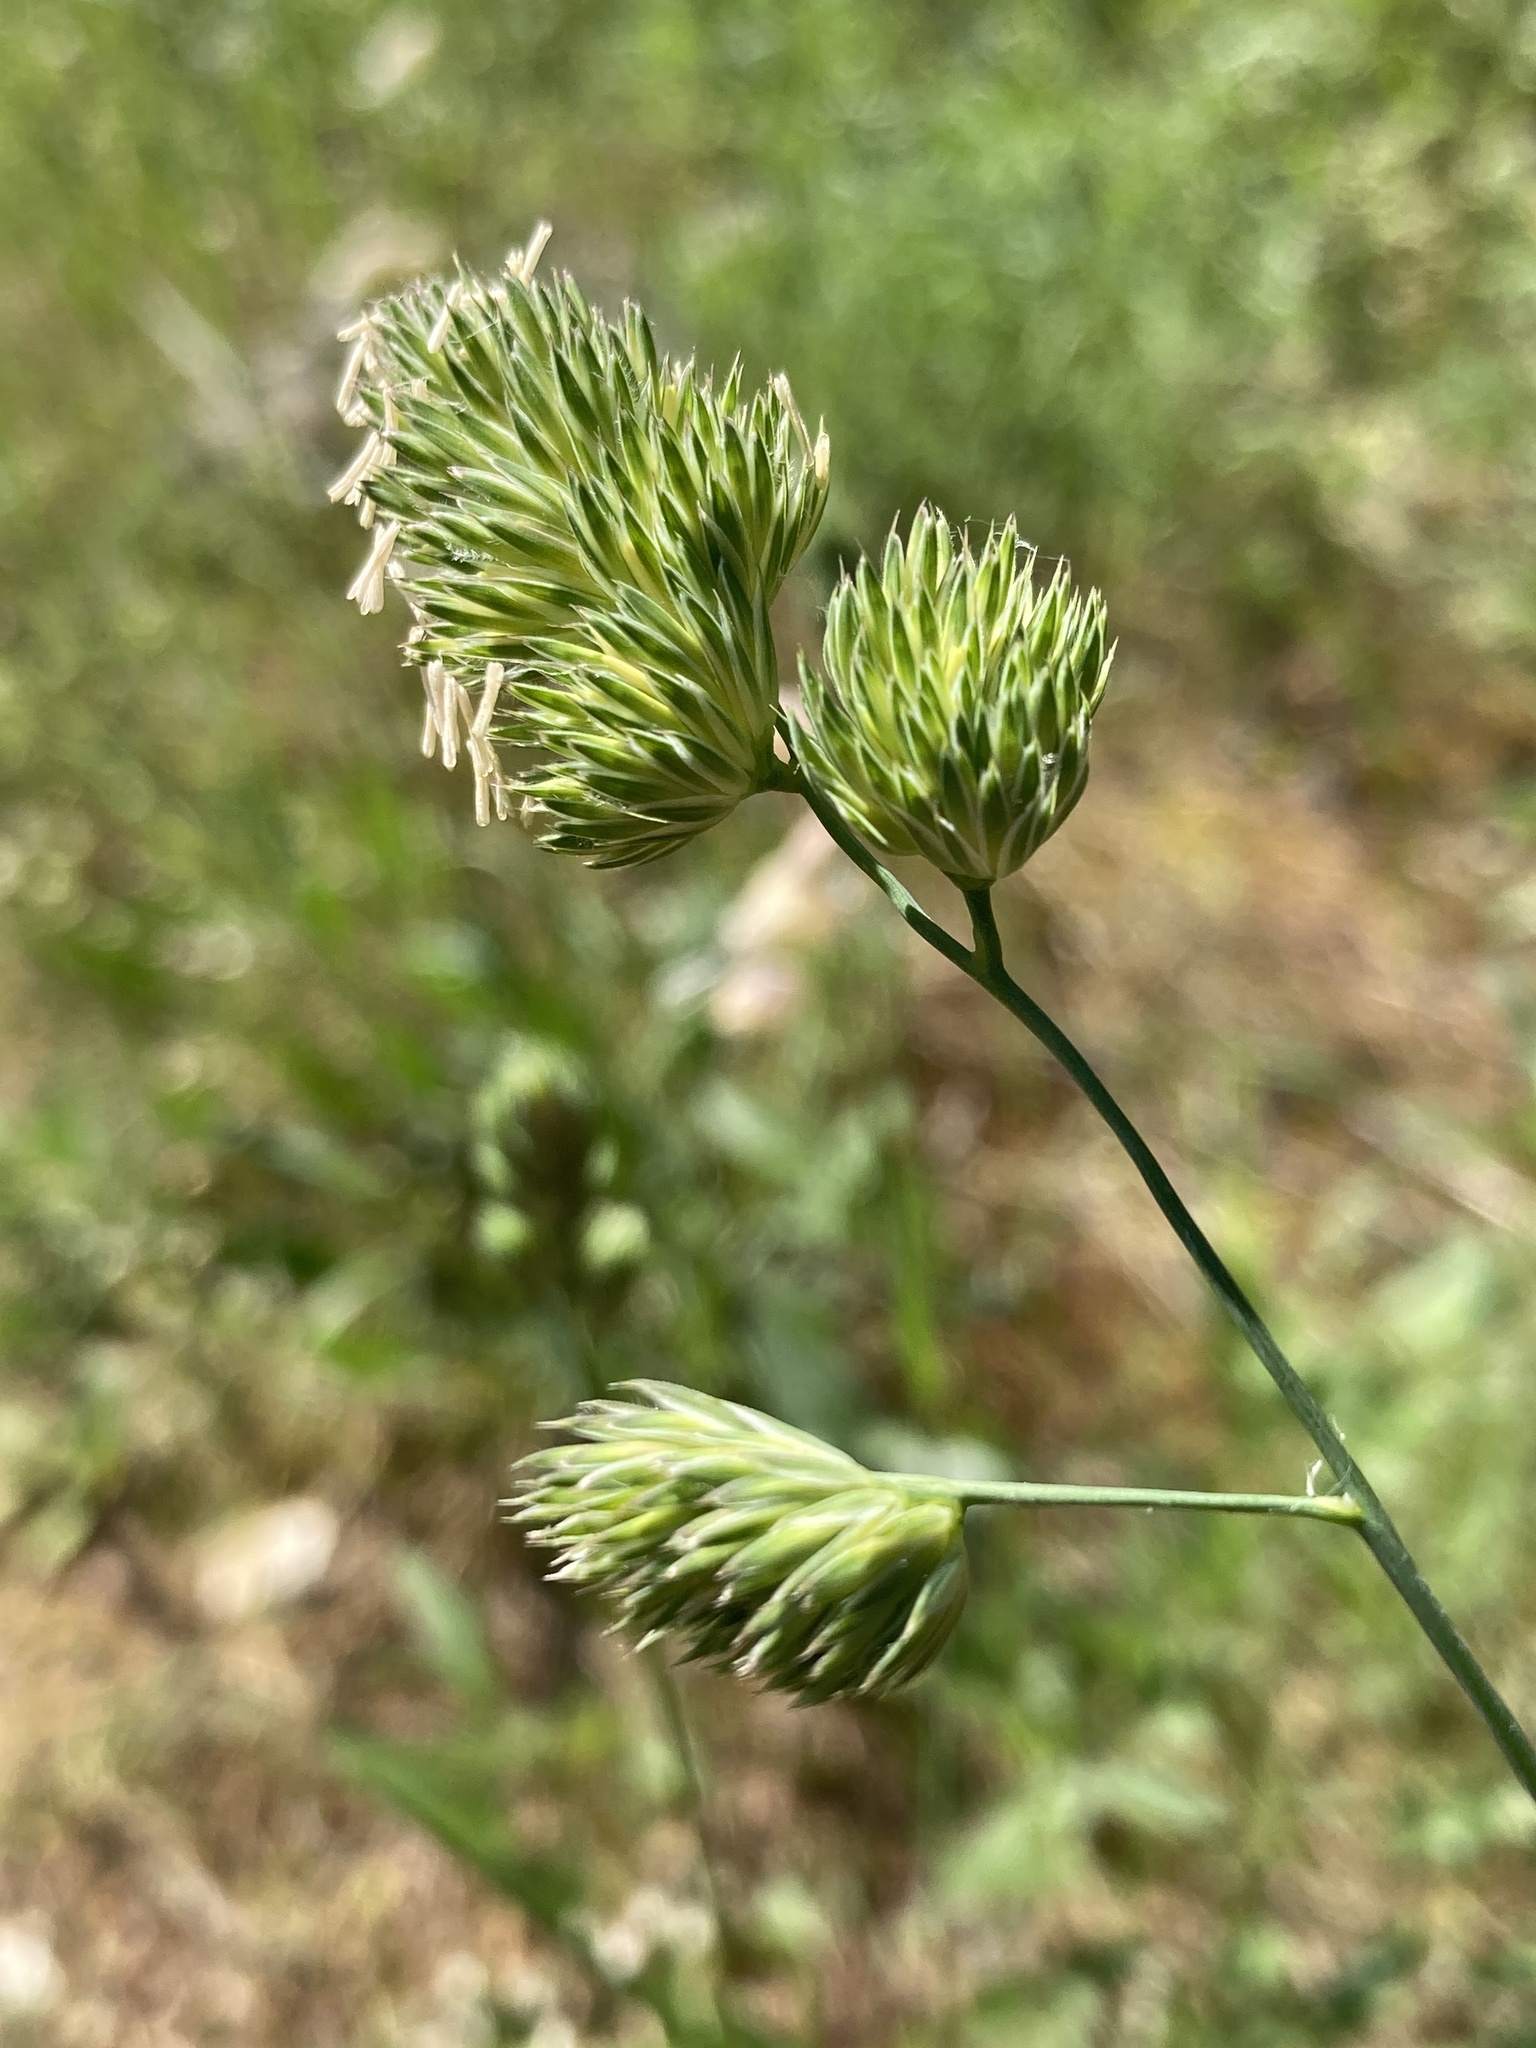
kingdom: Plantae
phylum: Tracheophyta
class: Liliopsida
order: Poales
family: Poaceae
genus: Dactylis
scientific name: Dactylis glomerata
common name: Orchardgrass
